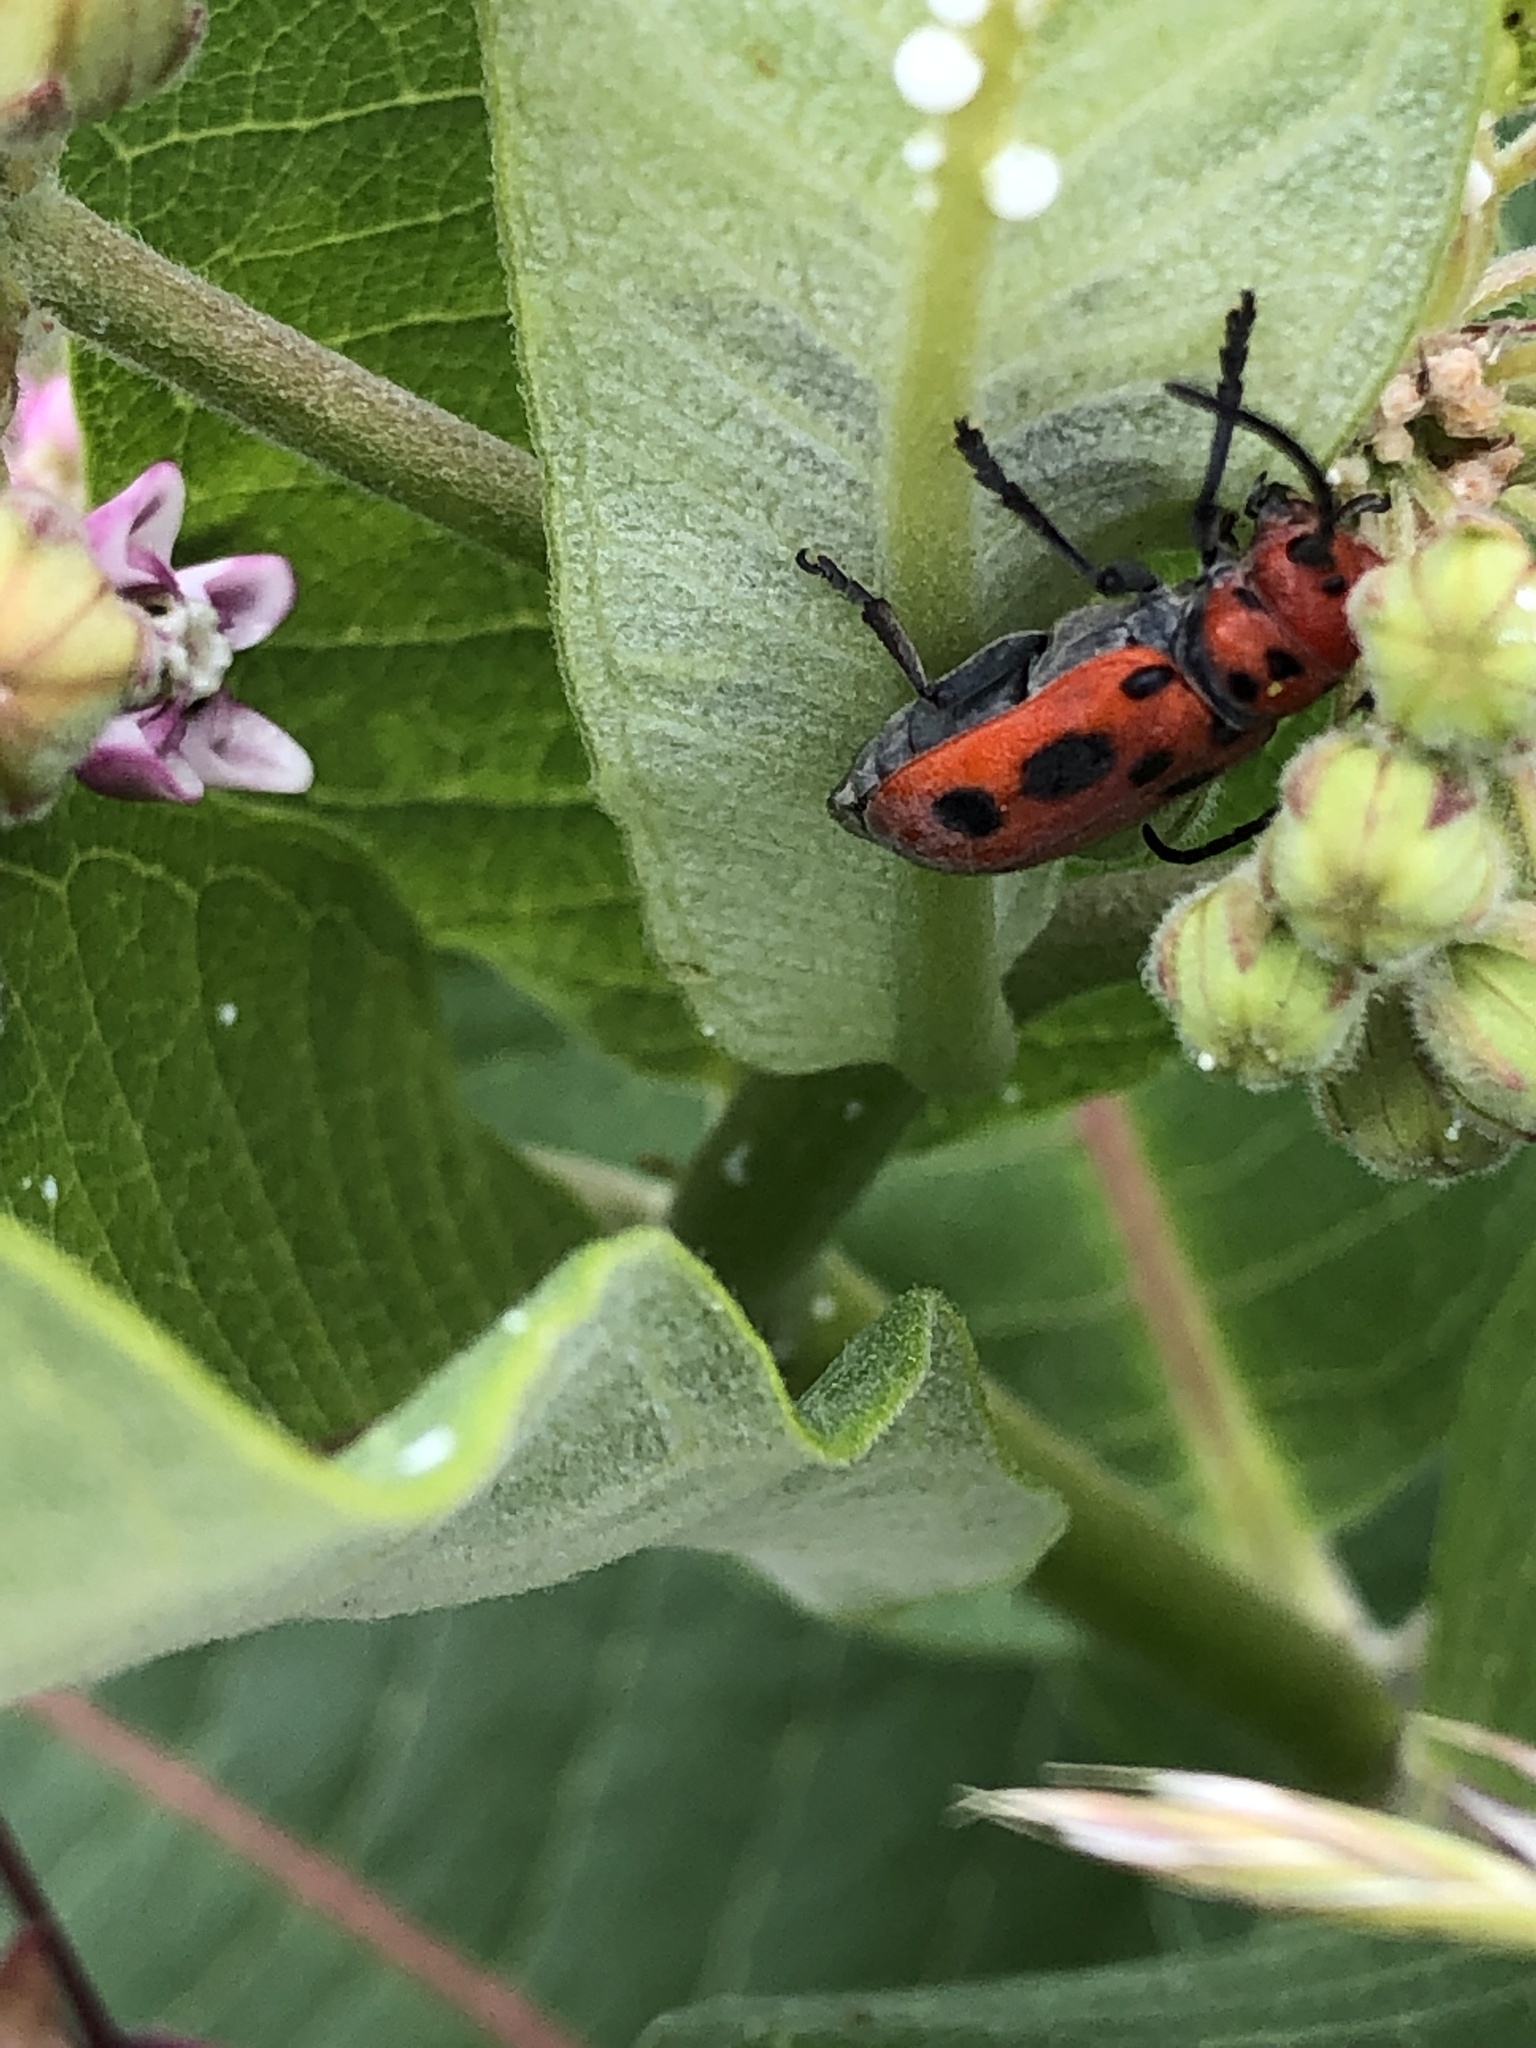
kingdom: Animalia
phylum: Arthropoda
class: Insecta
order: Coleoptera
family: Cerambycidae
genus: Tetraopes
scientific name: Tetraopes tetrophthalmus
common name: Red milkweed beetle
